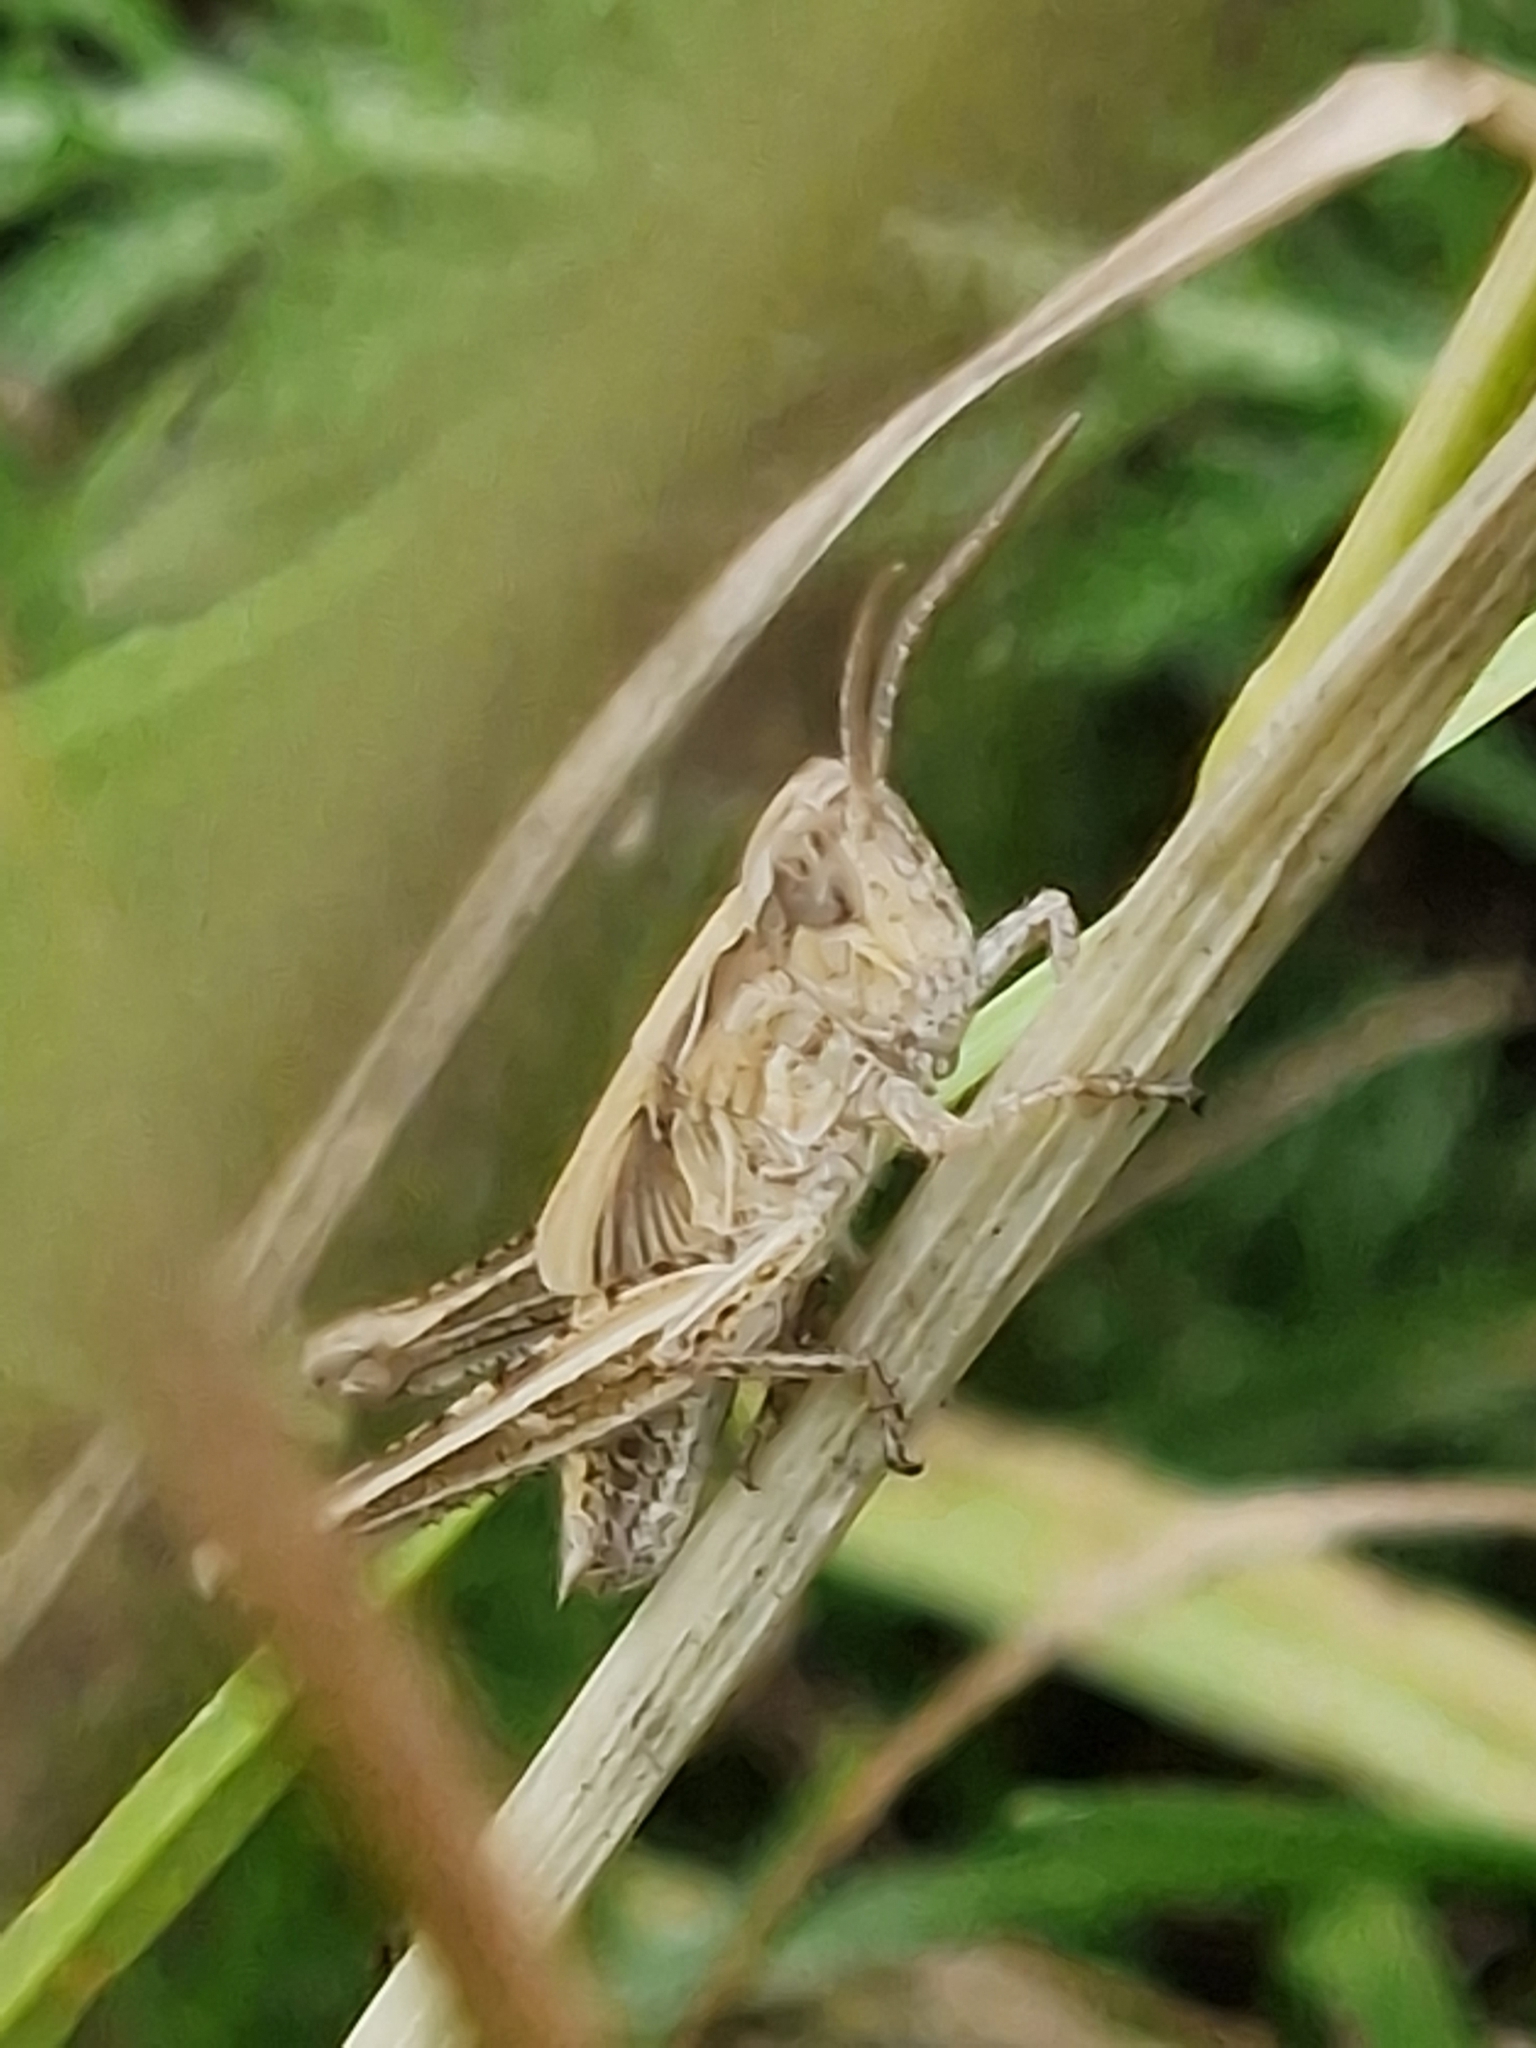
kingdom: Animalia
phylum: Arthropoda
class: Insecta
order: Orthoptera
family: Acrididae
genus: Chorthippus
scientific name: Chorthippus brunneus
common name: Field grasshopper
